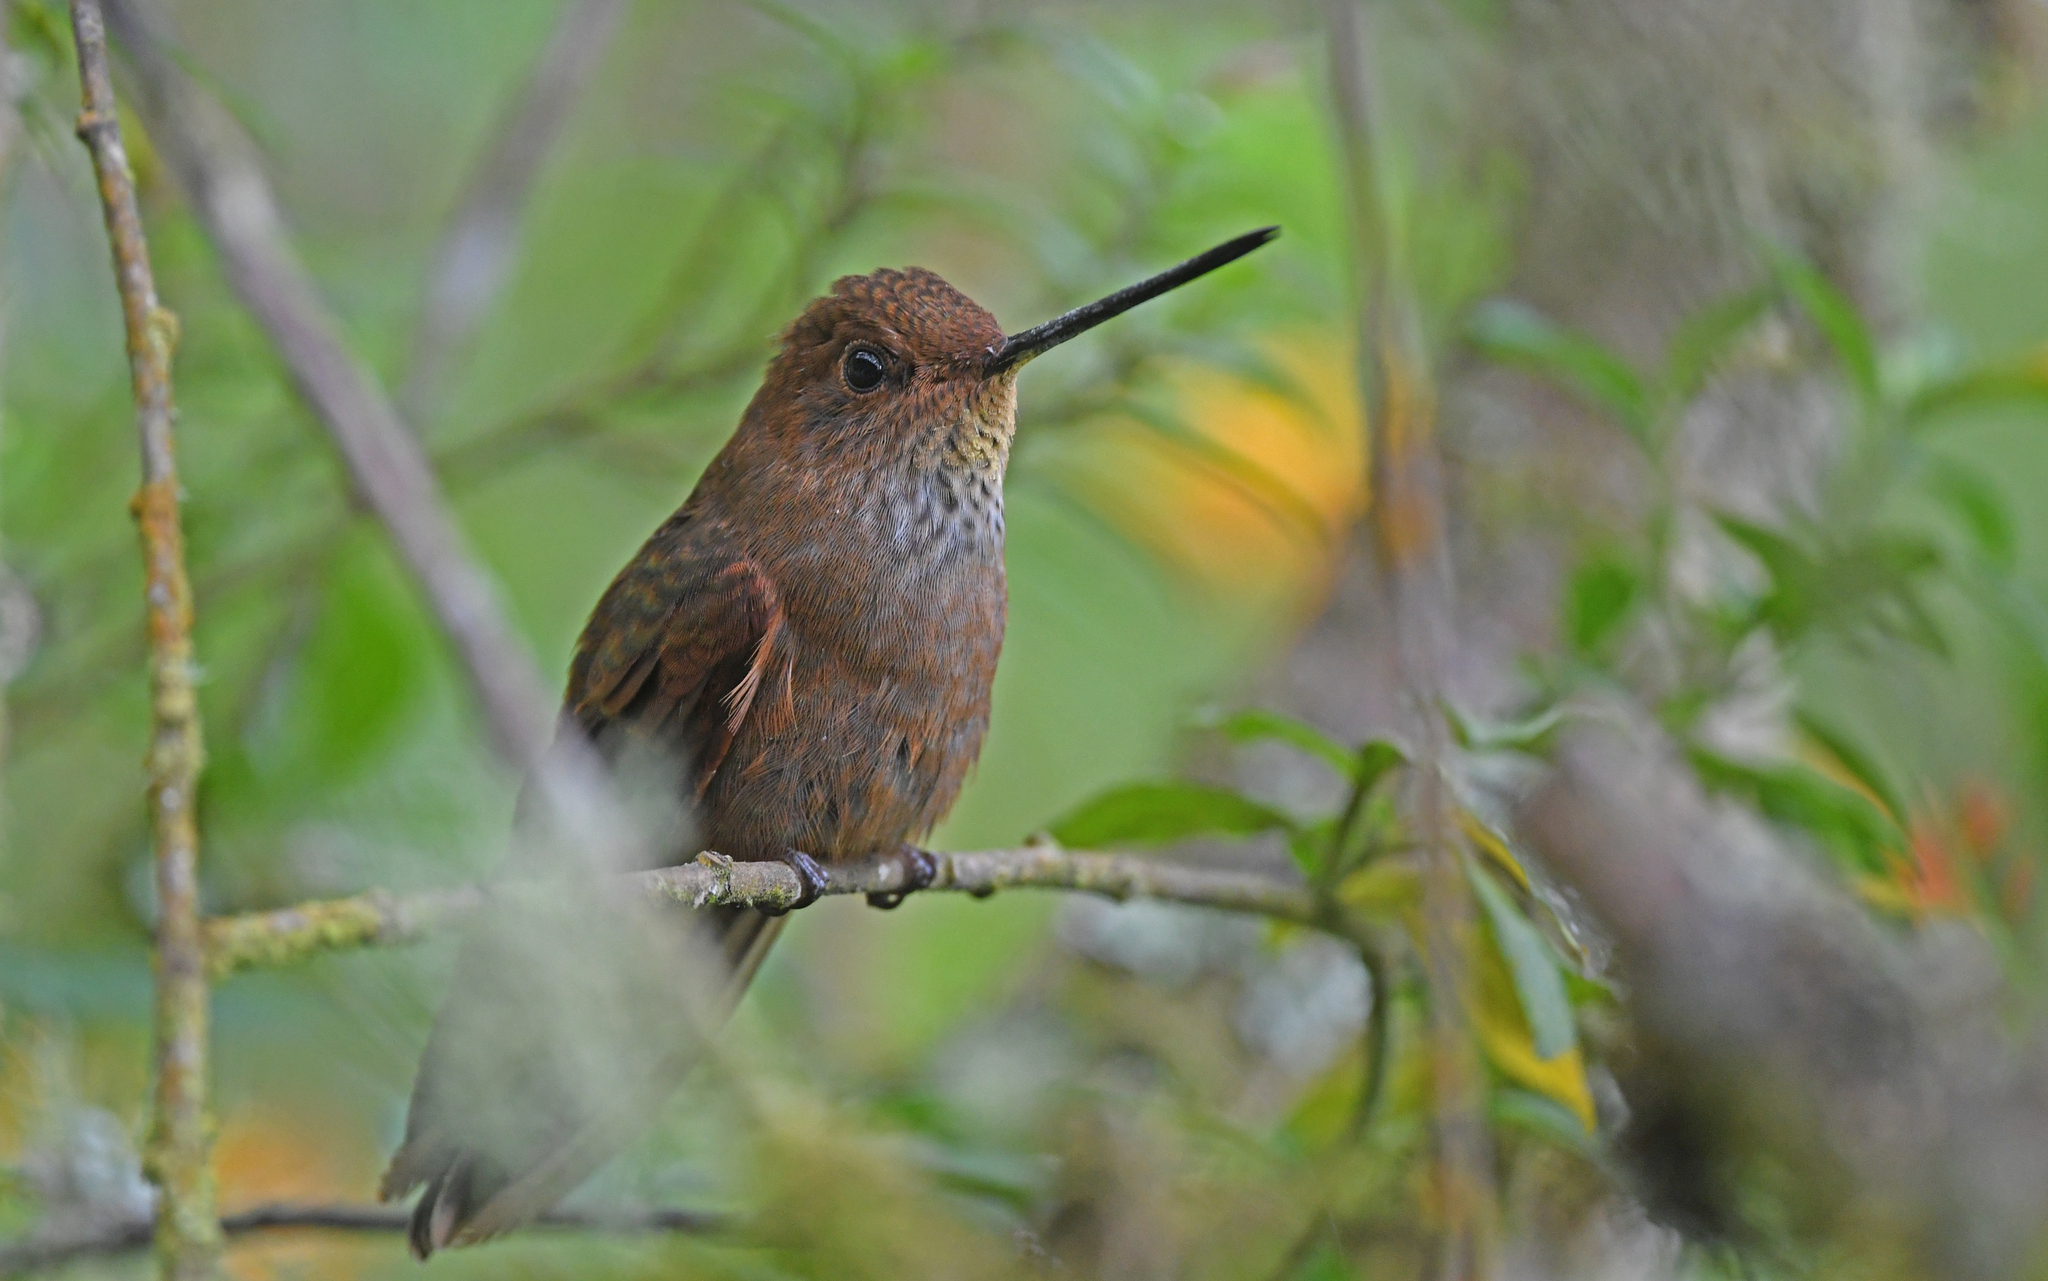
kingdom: Animalia
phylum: Chordata
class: Aves
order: Apodiformes
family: Trochilidae
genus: Coeligena
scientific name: Coeligena coeligena
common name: Bronzy inca
